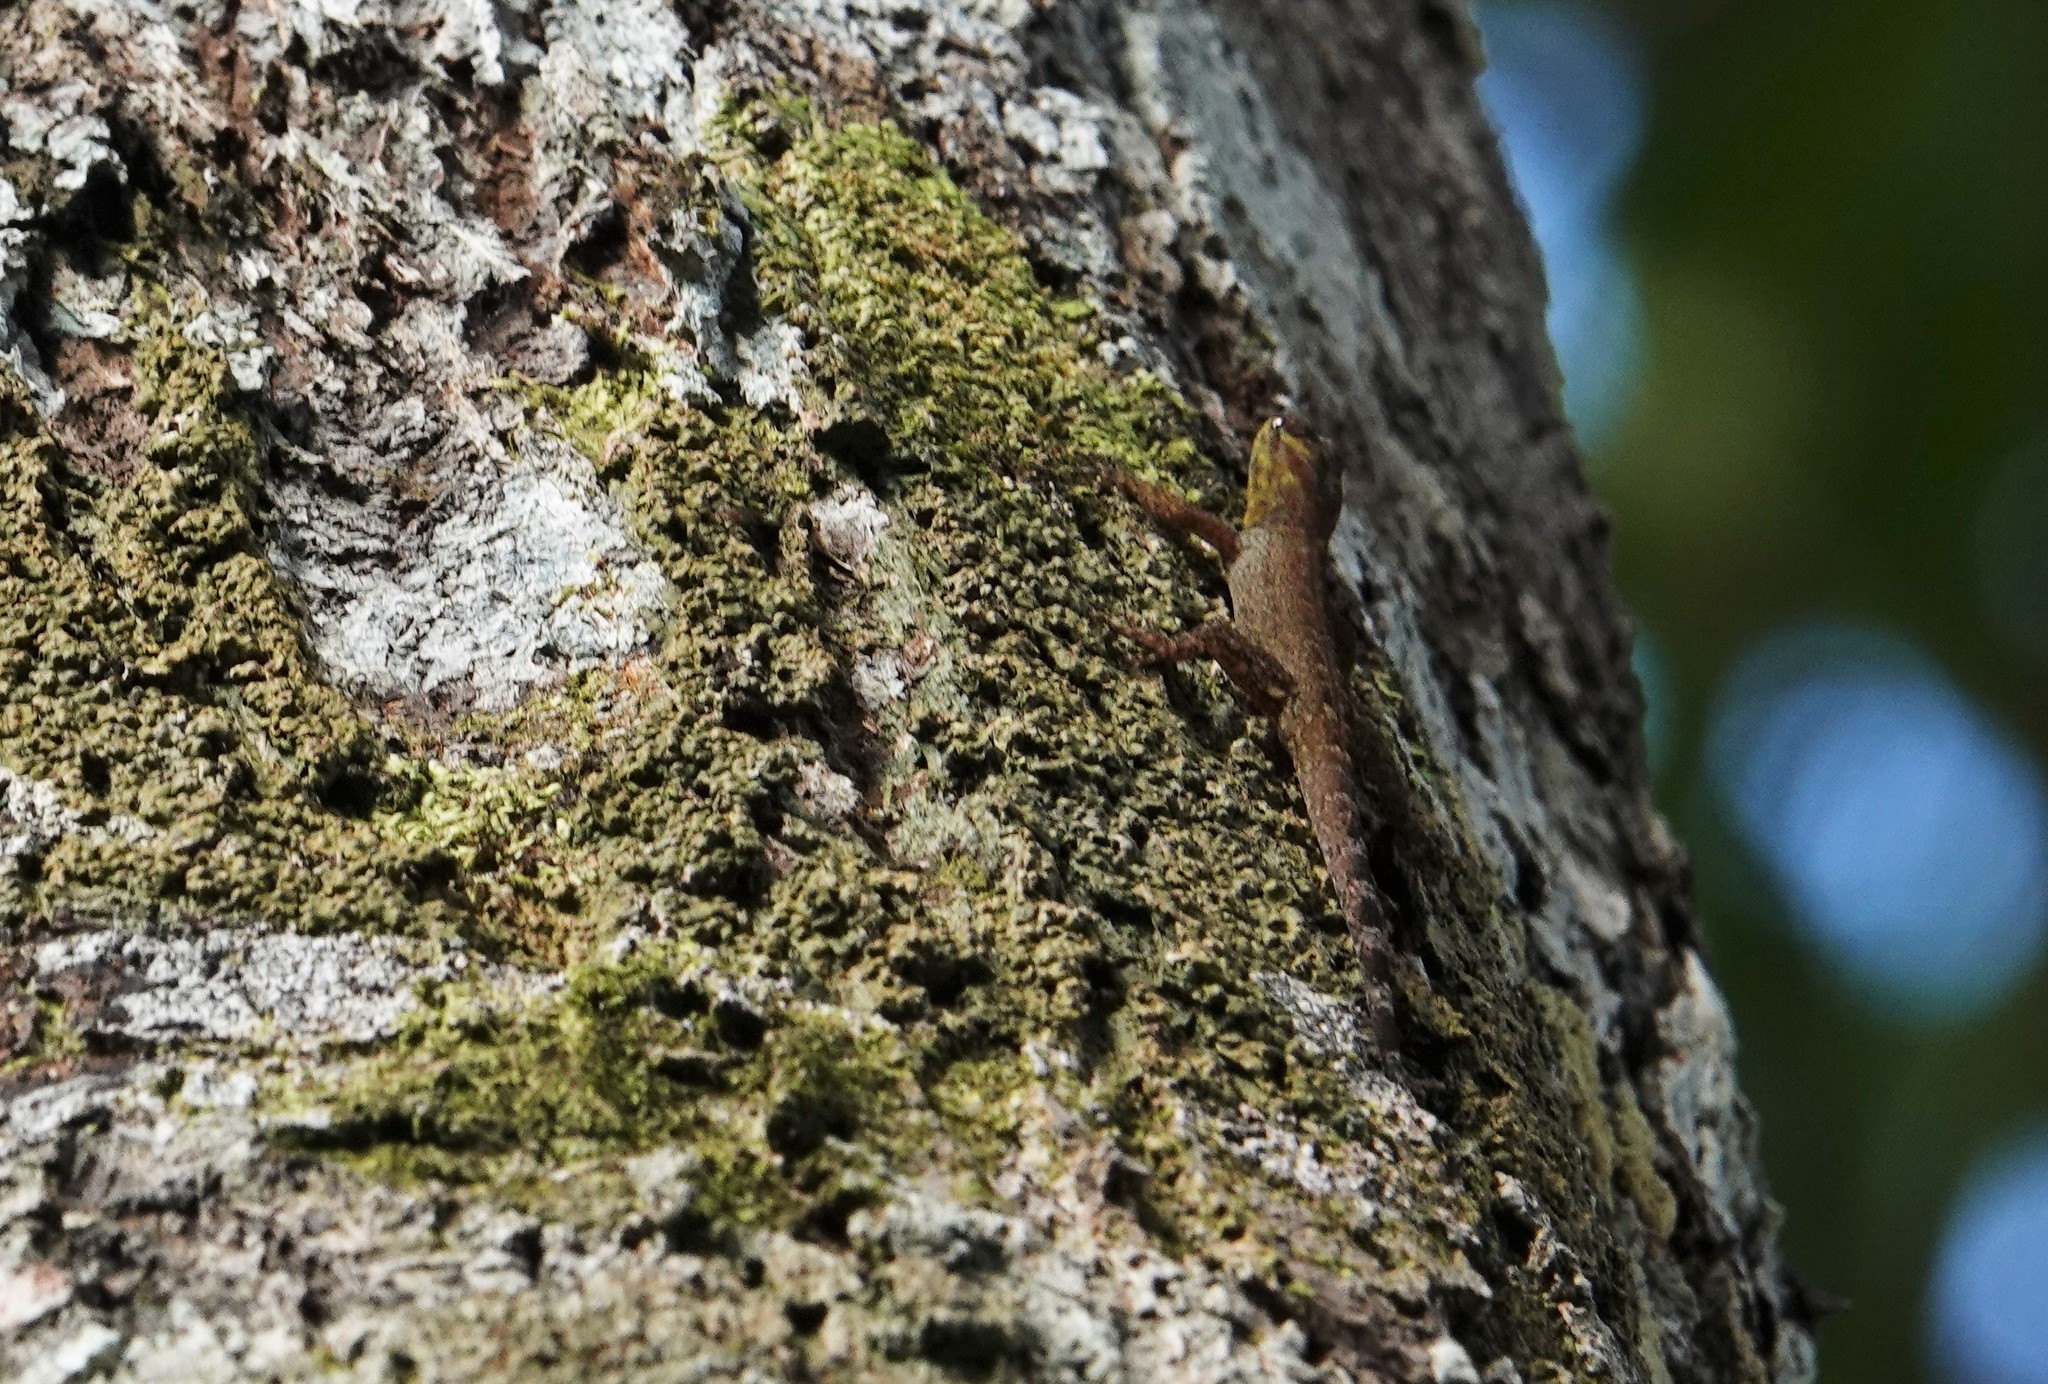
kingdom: Animalia
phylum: Chordata
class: Squamata
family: Sphaerodactylidae
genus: Gonatodes
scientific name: Gonatodes humeralis
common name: South american clawed gecko
